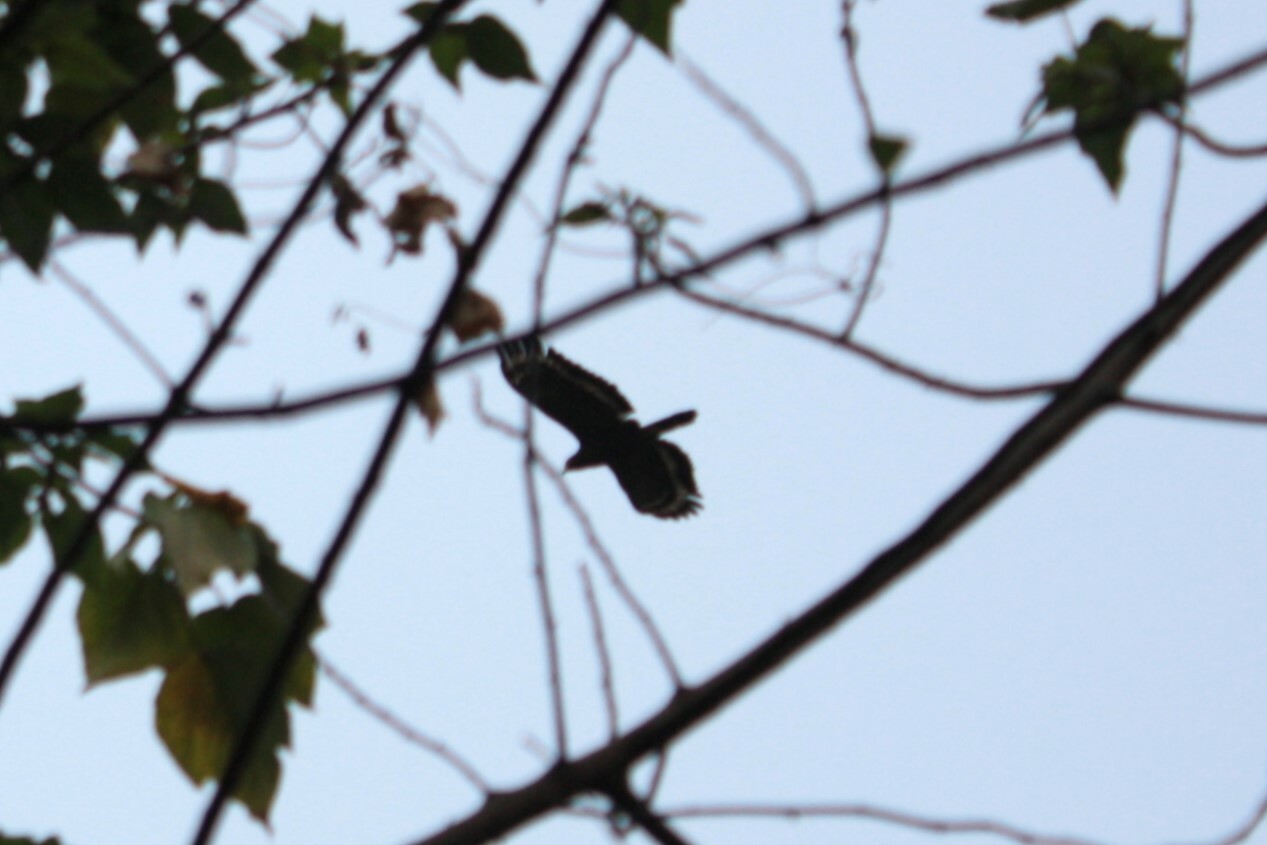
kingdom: Animalia
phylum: Chordata
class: Aves
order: Accipitriformes
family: Accipitridae
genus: Spilornis
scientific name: Spilornis cheela
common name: Crested serpent eagle
